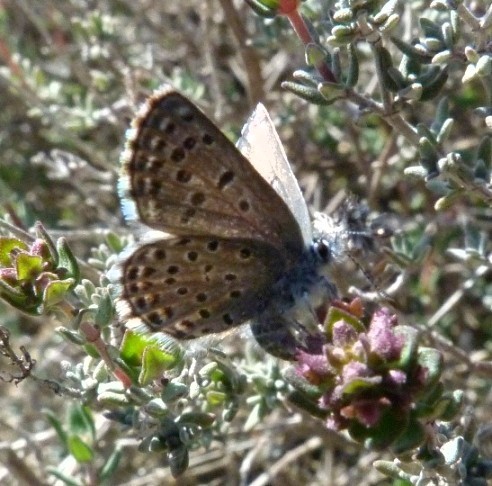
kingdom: Animalia
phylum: Arthropoda
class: Insecta
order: Lepidoptera
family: Lycaenidae
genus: Pseudophilotes
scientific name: Pseudophilotes baton
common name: Baton blue
